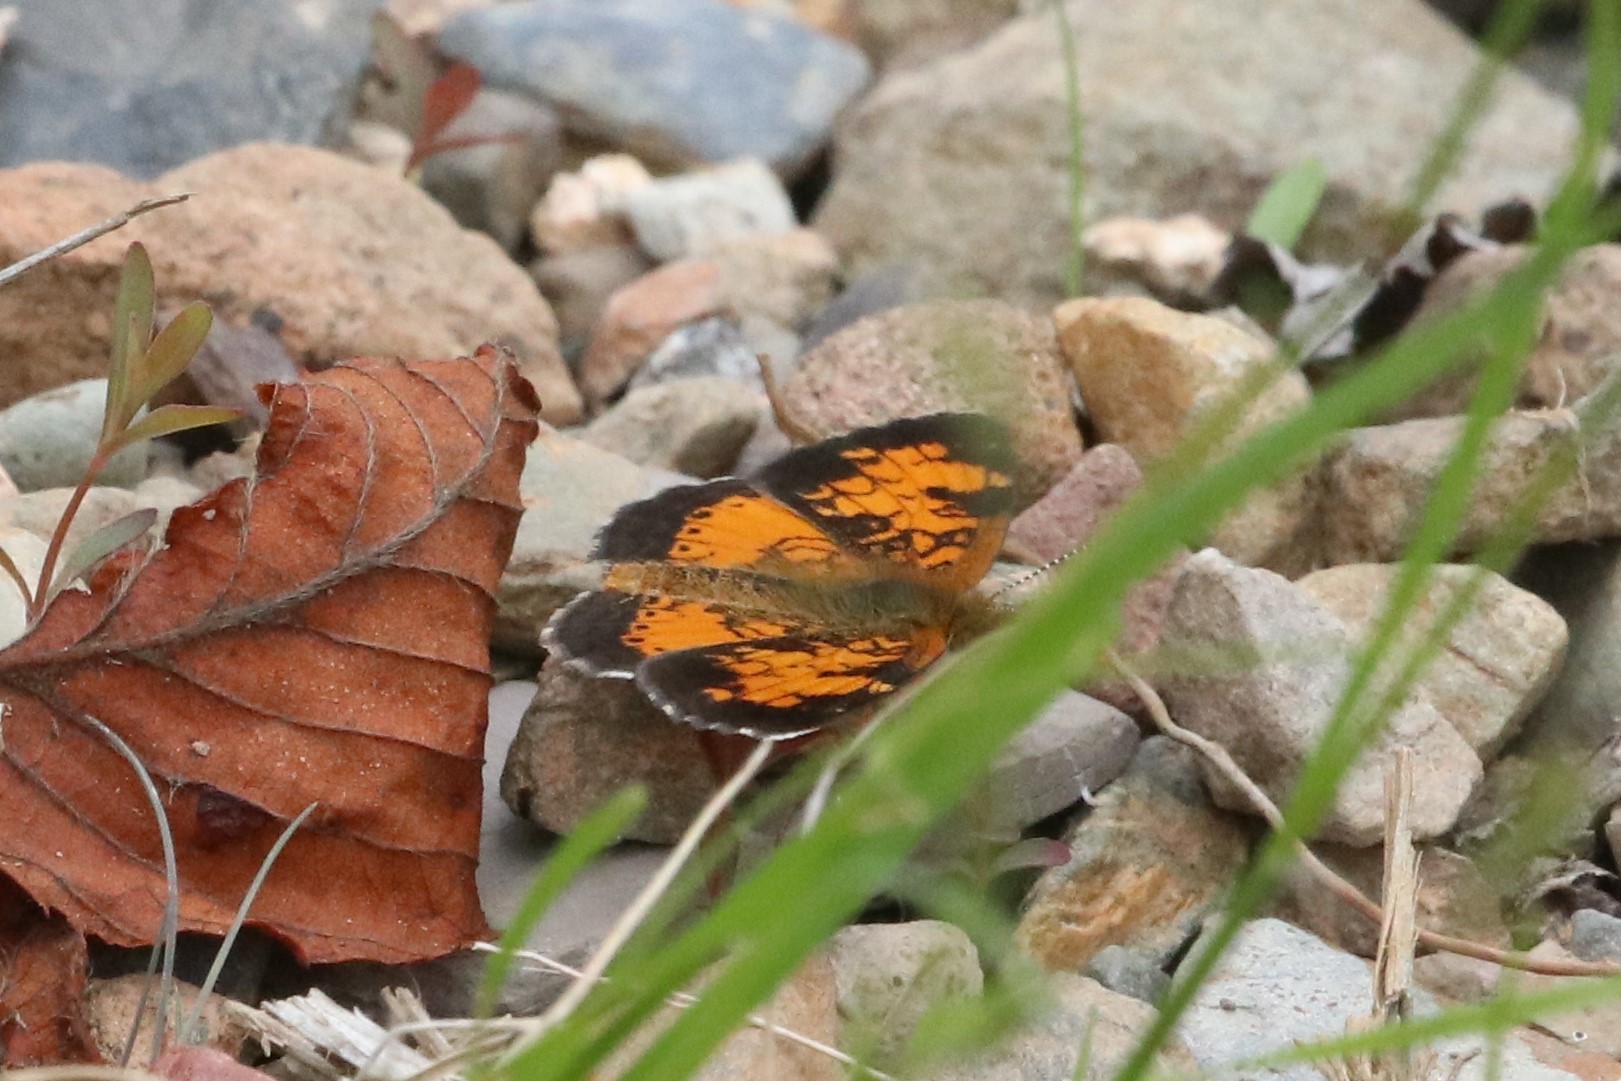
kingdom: Animalia
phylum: Arthropoda
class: Insecta
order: Lepidoptera
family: Nymphalidae
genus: Phyciodes
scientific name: Phyciodes tharos
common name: Pearl crescent
